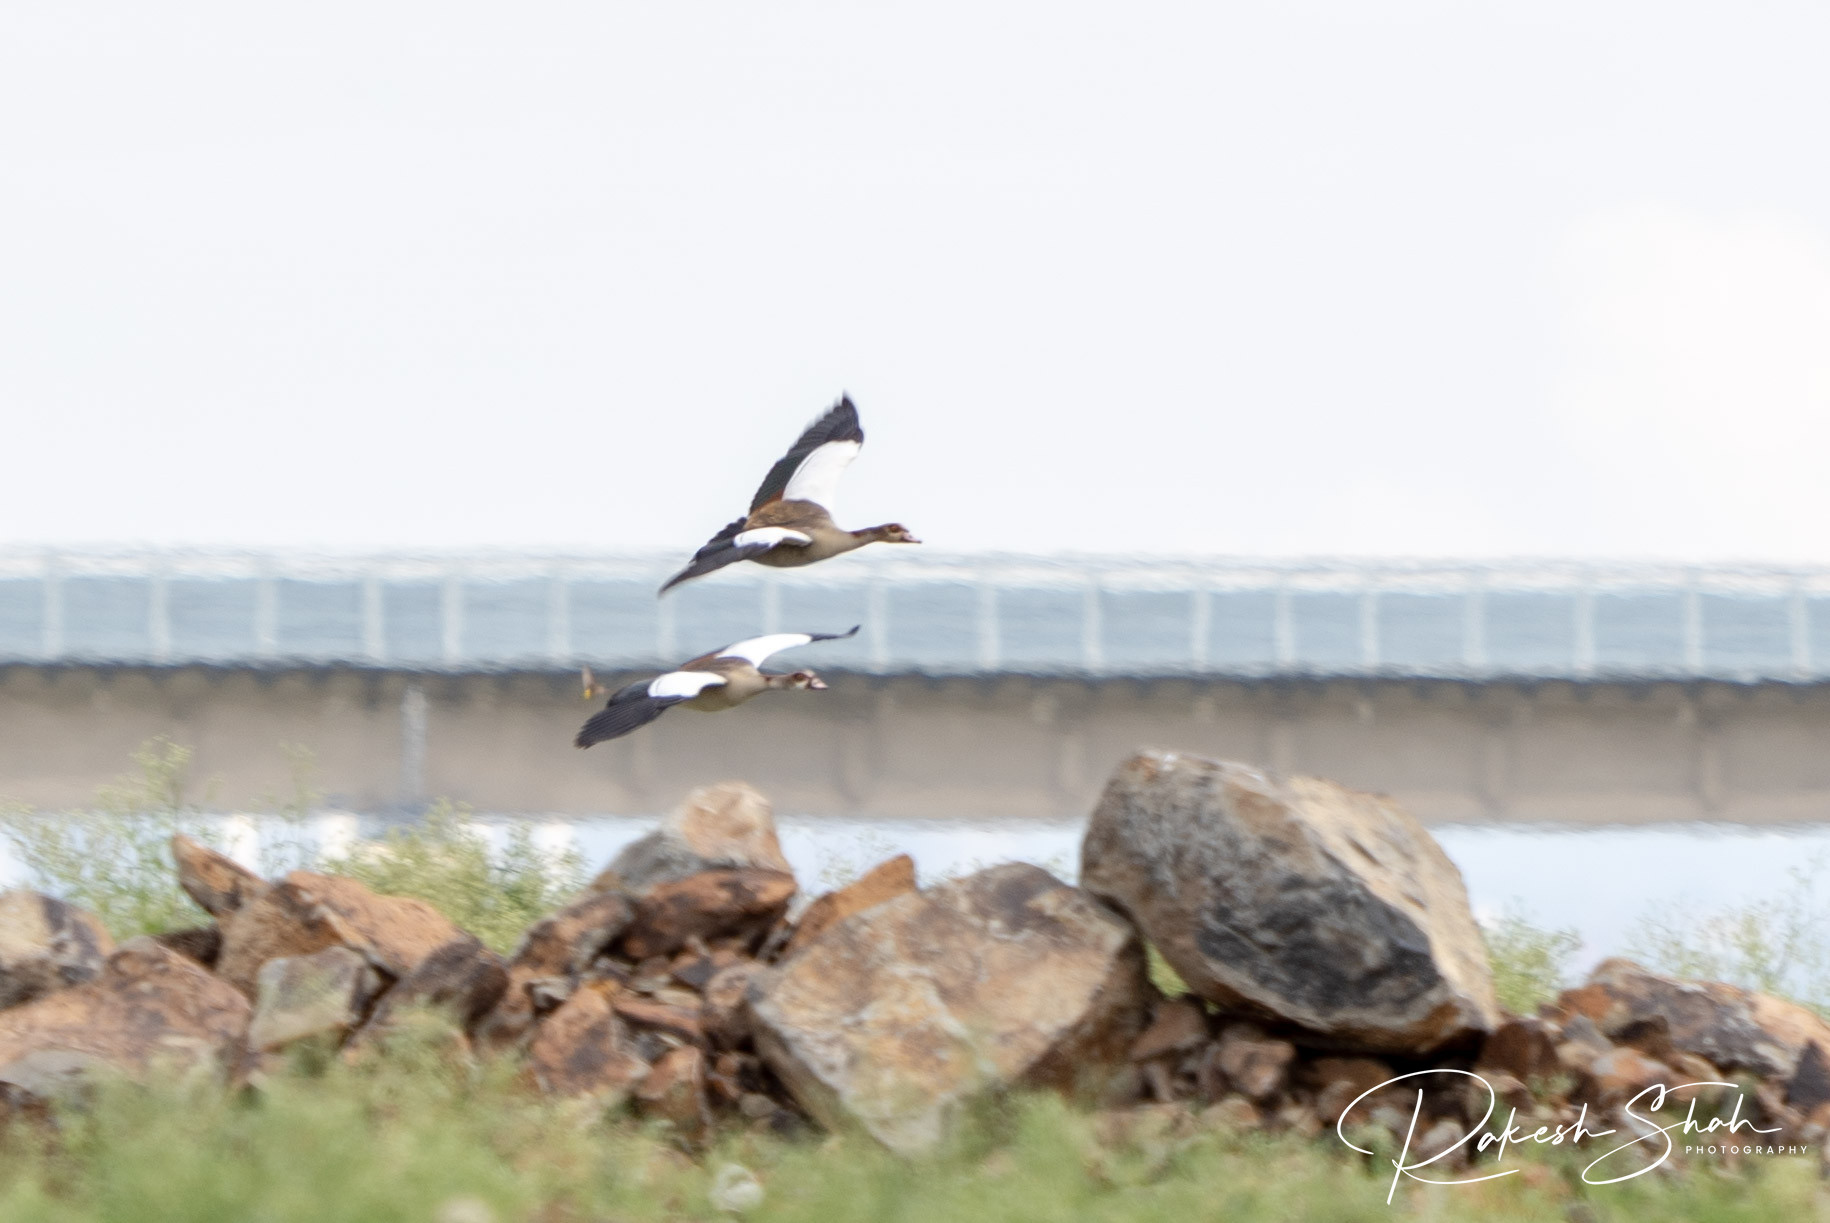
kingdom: Animalia
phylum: Chordata
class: Aves
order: Anseriformes
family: Anatidae
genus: Alopochen
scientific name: Alopochen aegyptiaca
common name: Egyptian goose
